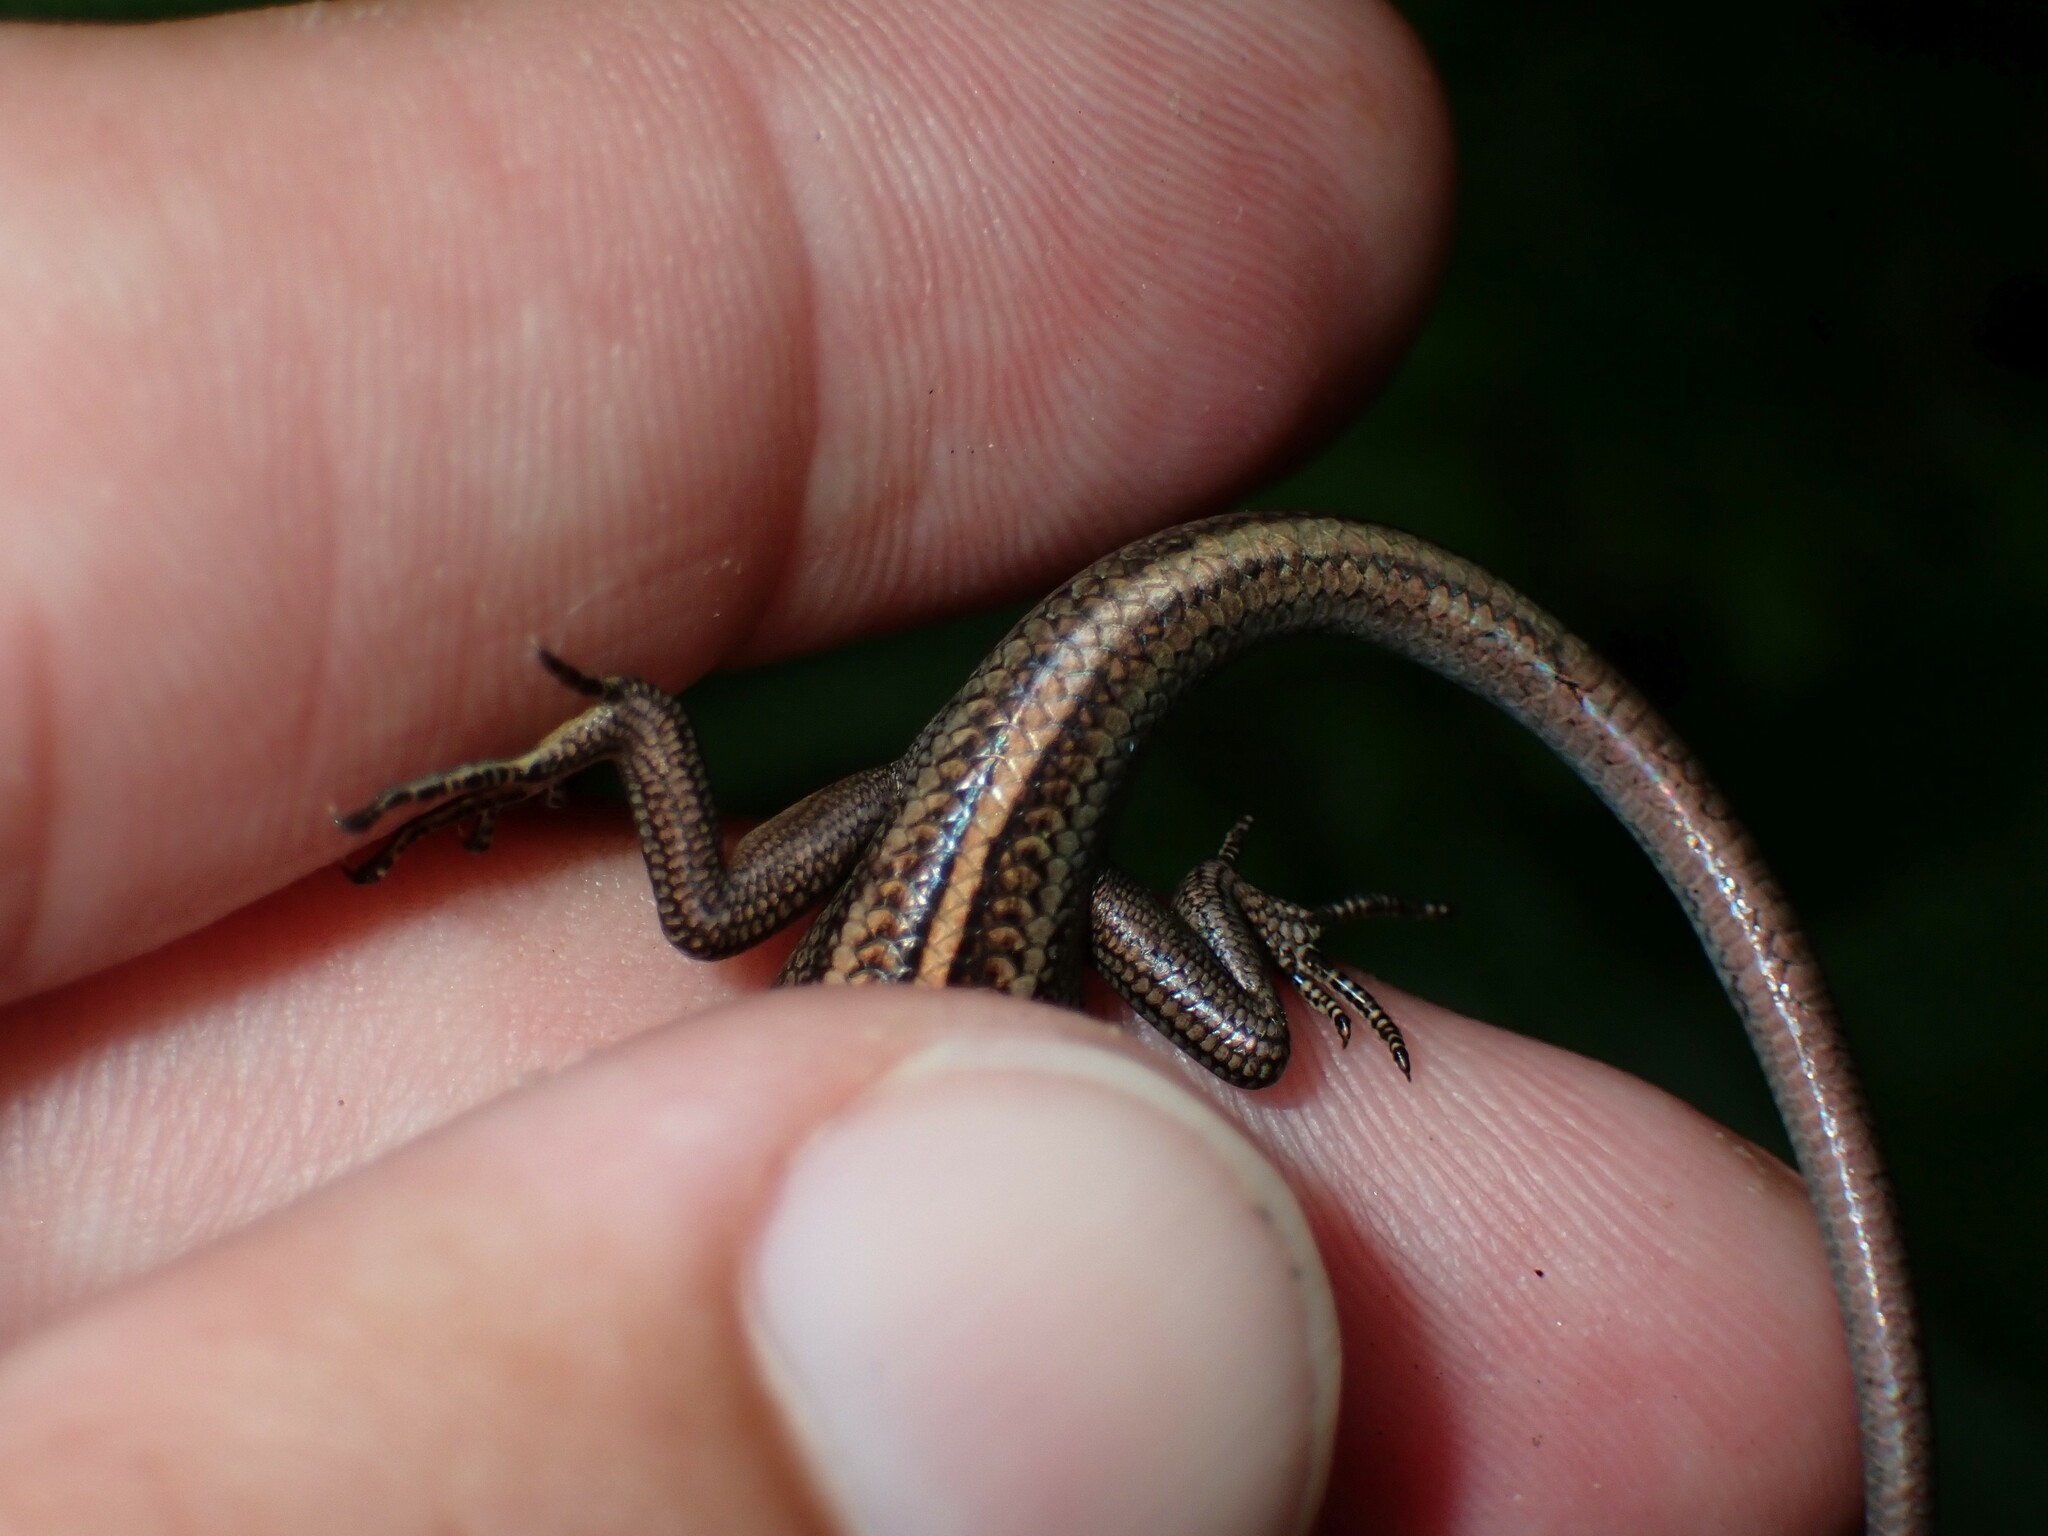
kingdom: Animalia
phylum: Chordata
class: Squamata
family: Scincidae
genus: Emoia
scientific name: Emoia cyanura
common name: Copper-tailed skink
